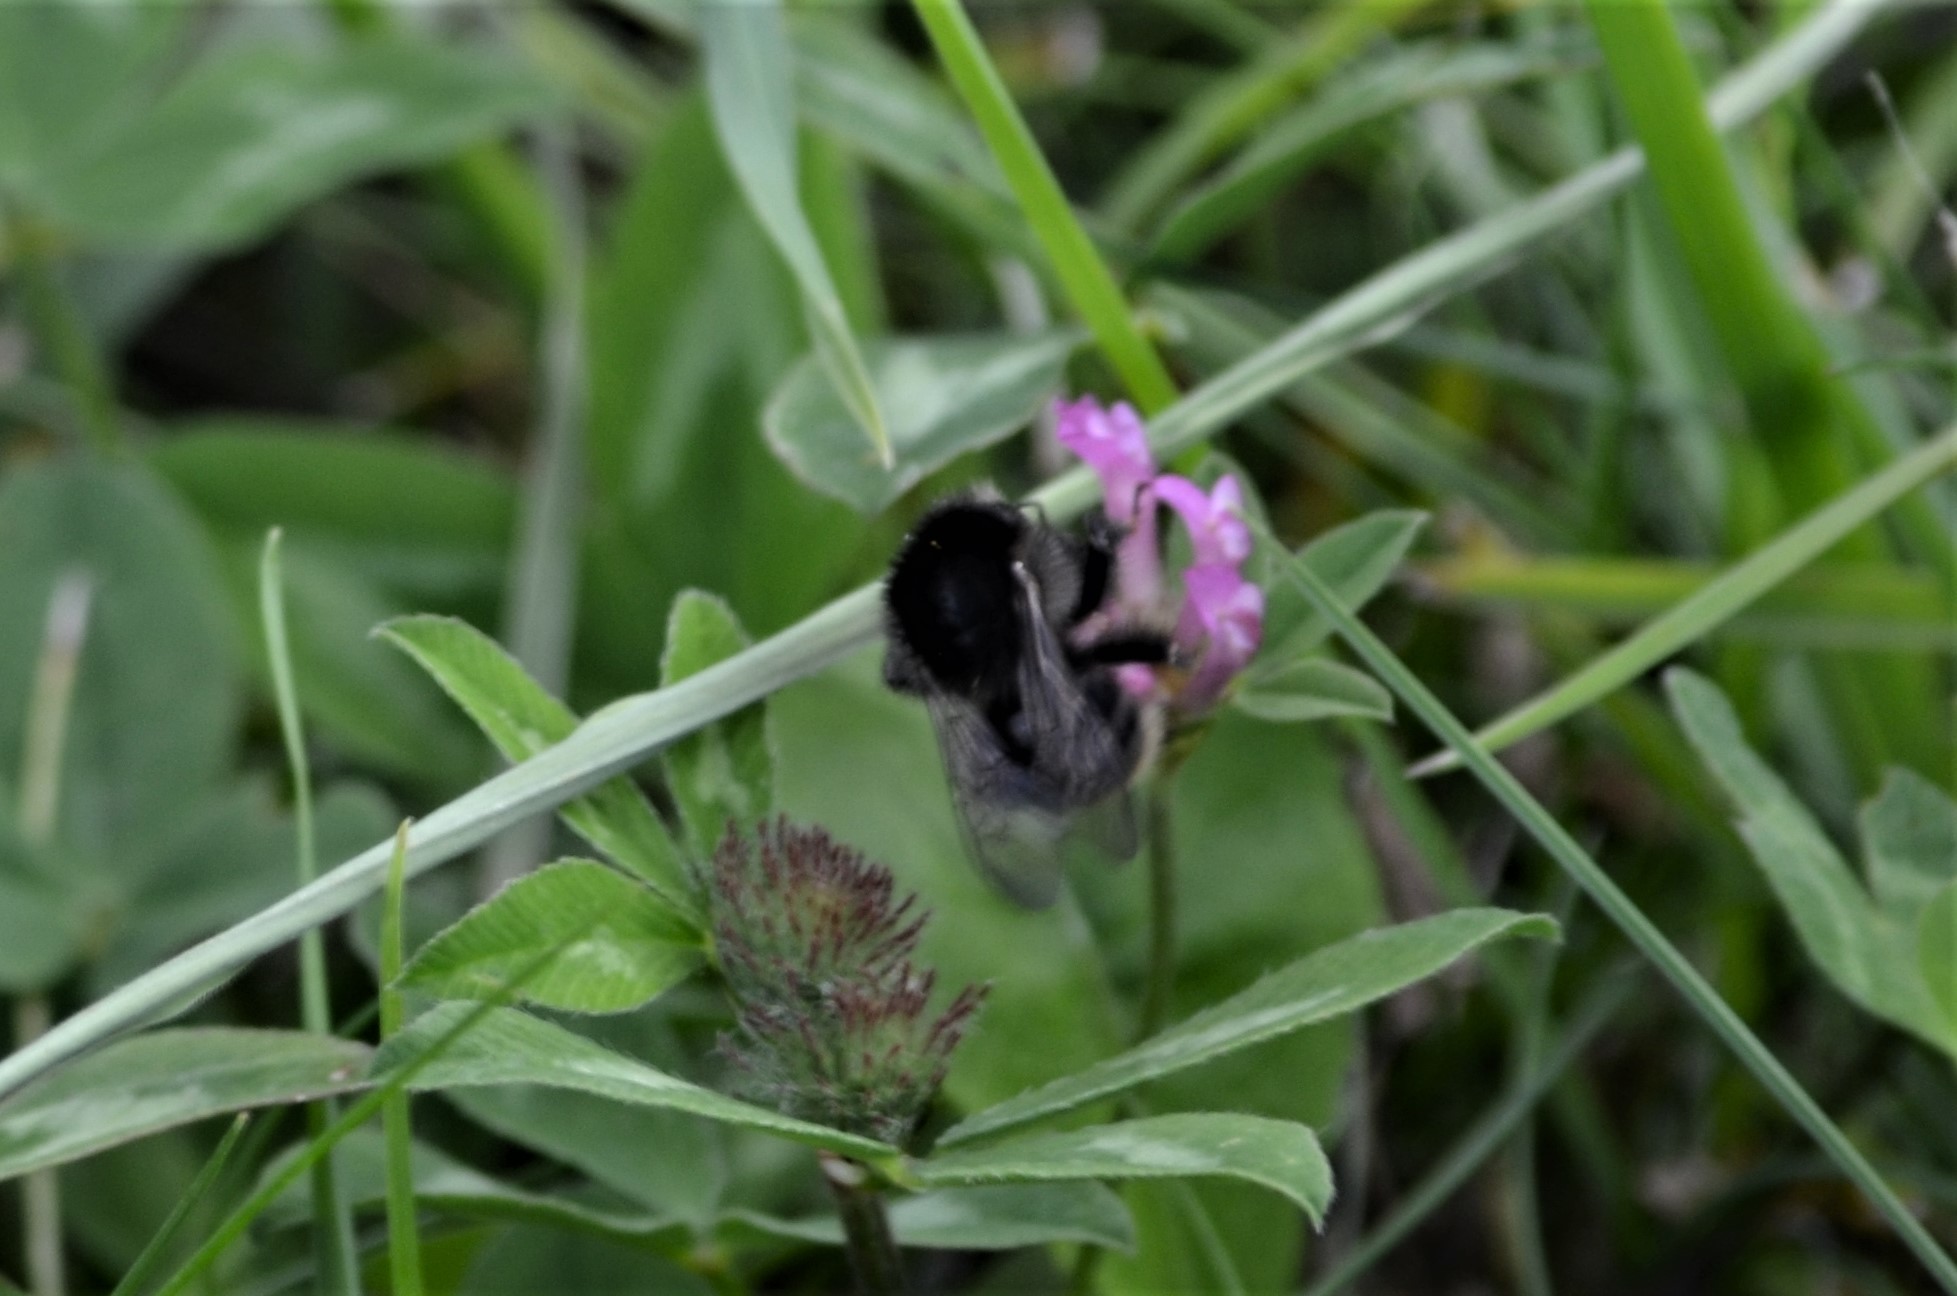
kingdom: Animalia
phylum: Arthropoda
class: Insecta
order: Hymenoptera
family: Apidae
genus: Bombus
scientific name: Bombus humilis
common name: Brown-banded carder-bee
